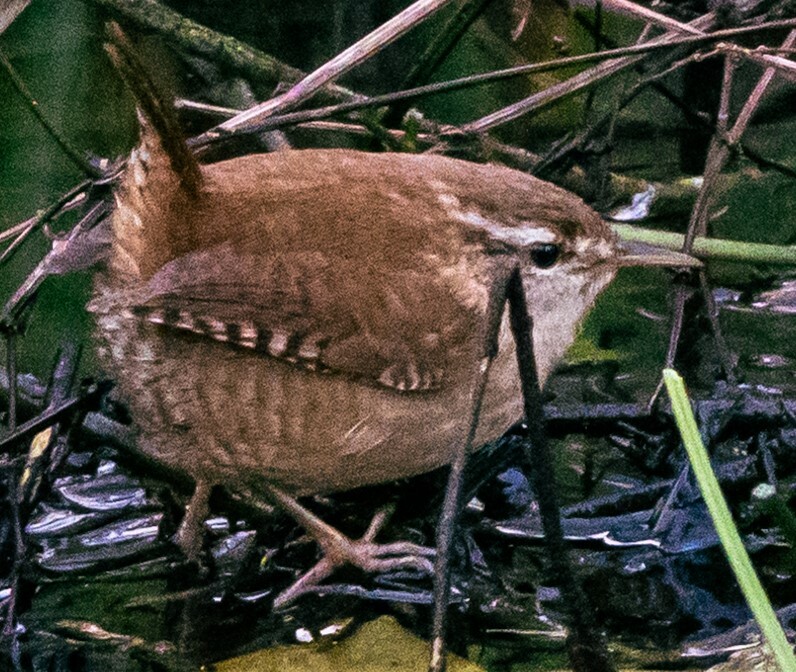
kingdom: Animalia
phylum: Chordata
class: Aves
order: Passeriformes
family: Troglodytidae
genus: Troglodytes
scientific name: Troglodytes troglodytes
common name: Eurasian wren
